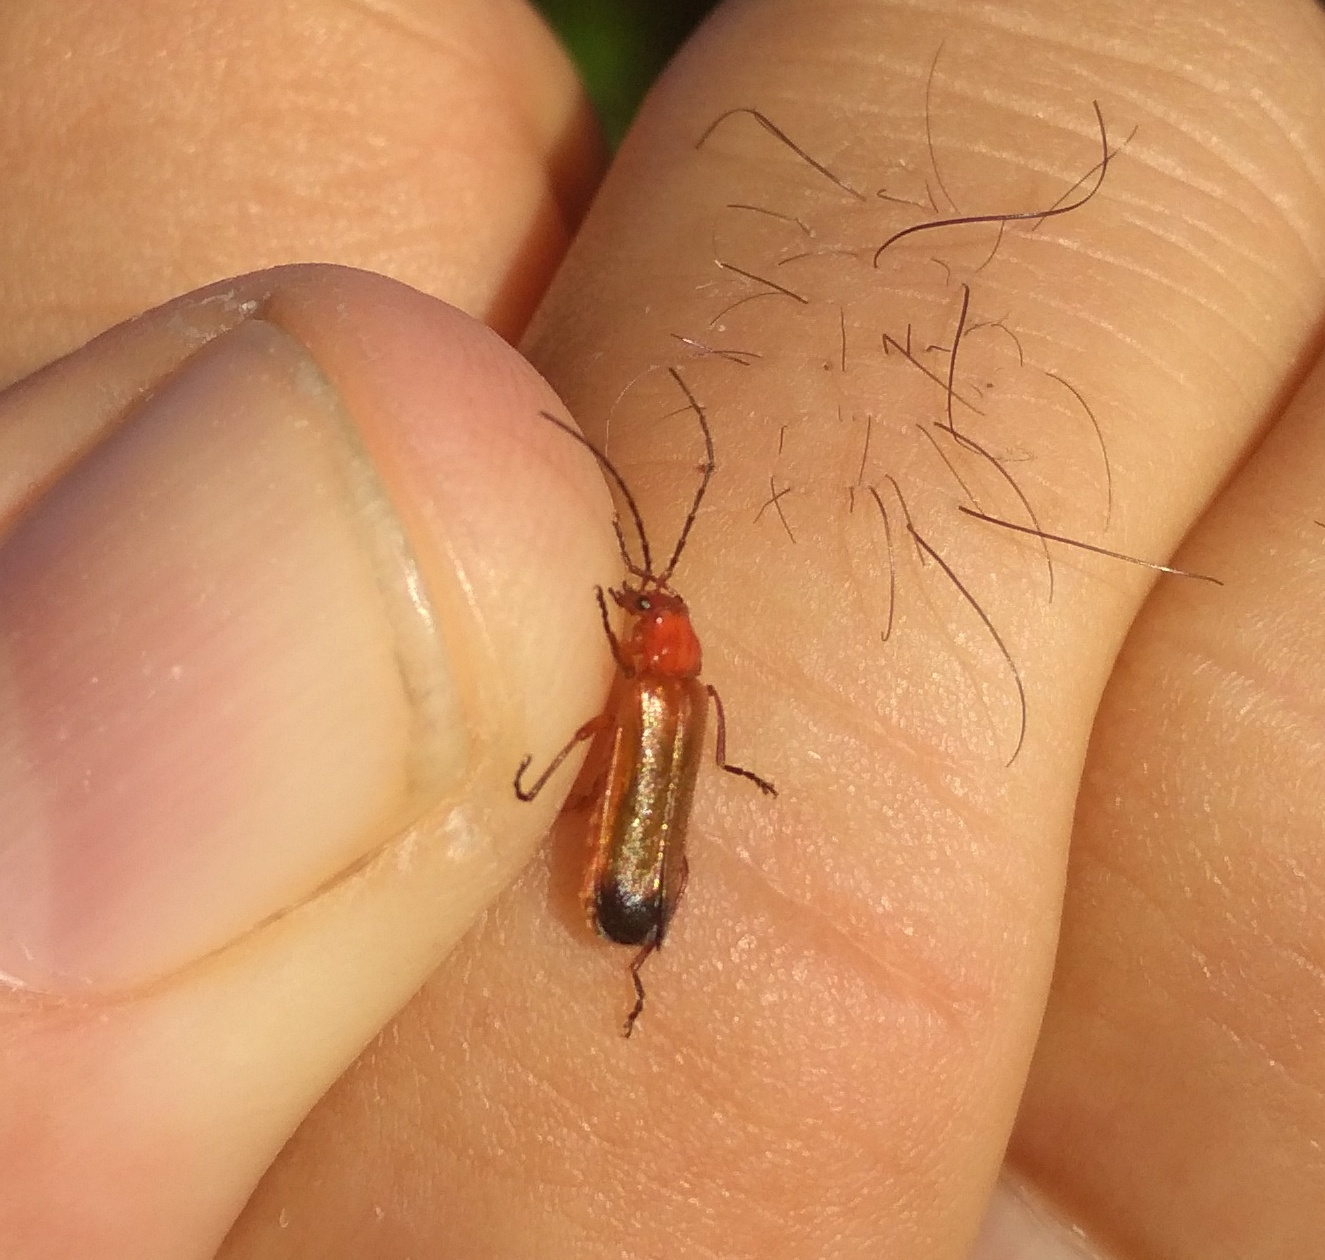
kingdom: Animalia
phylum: Arthropoda
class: Insecta
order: Coleoptera
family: Cantharidae
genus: Rhagonycha
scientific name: Rhagonycha fulva
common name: Common red soldier beetle
